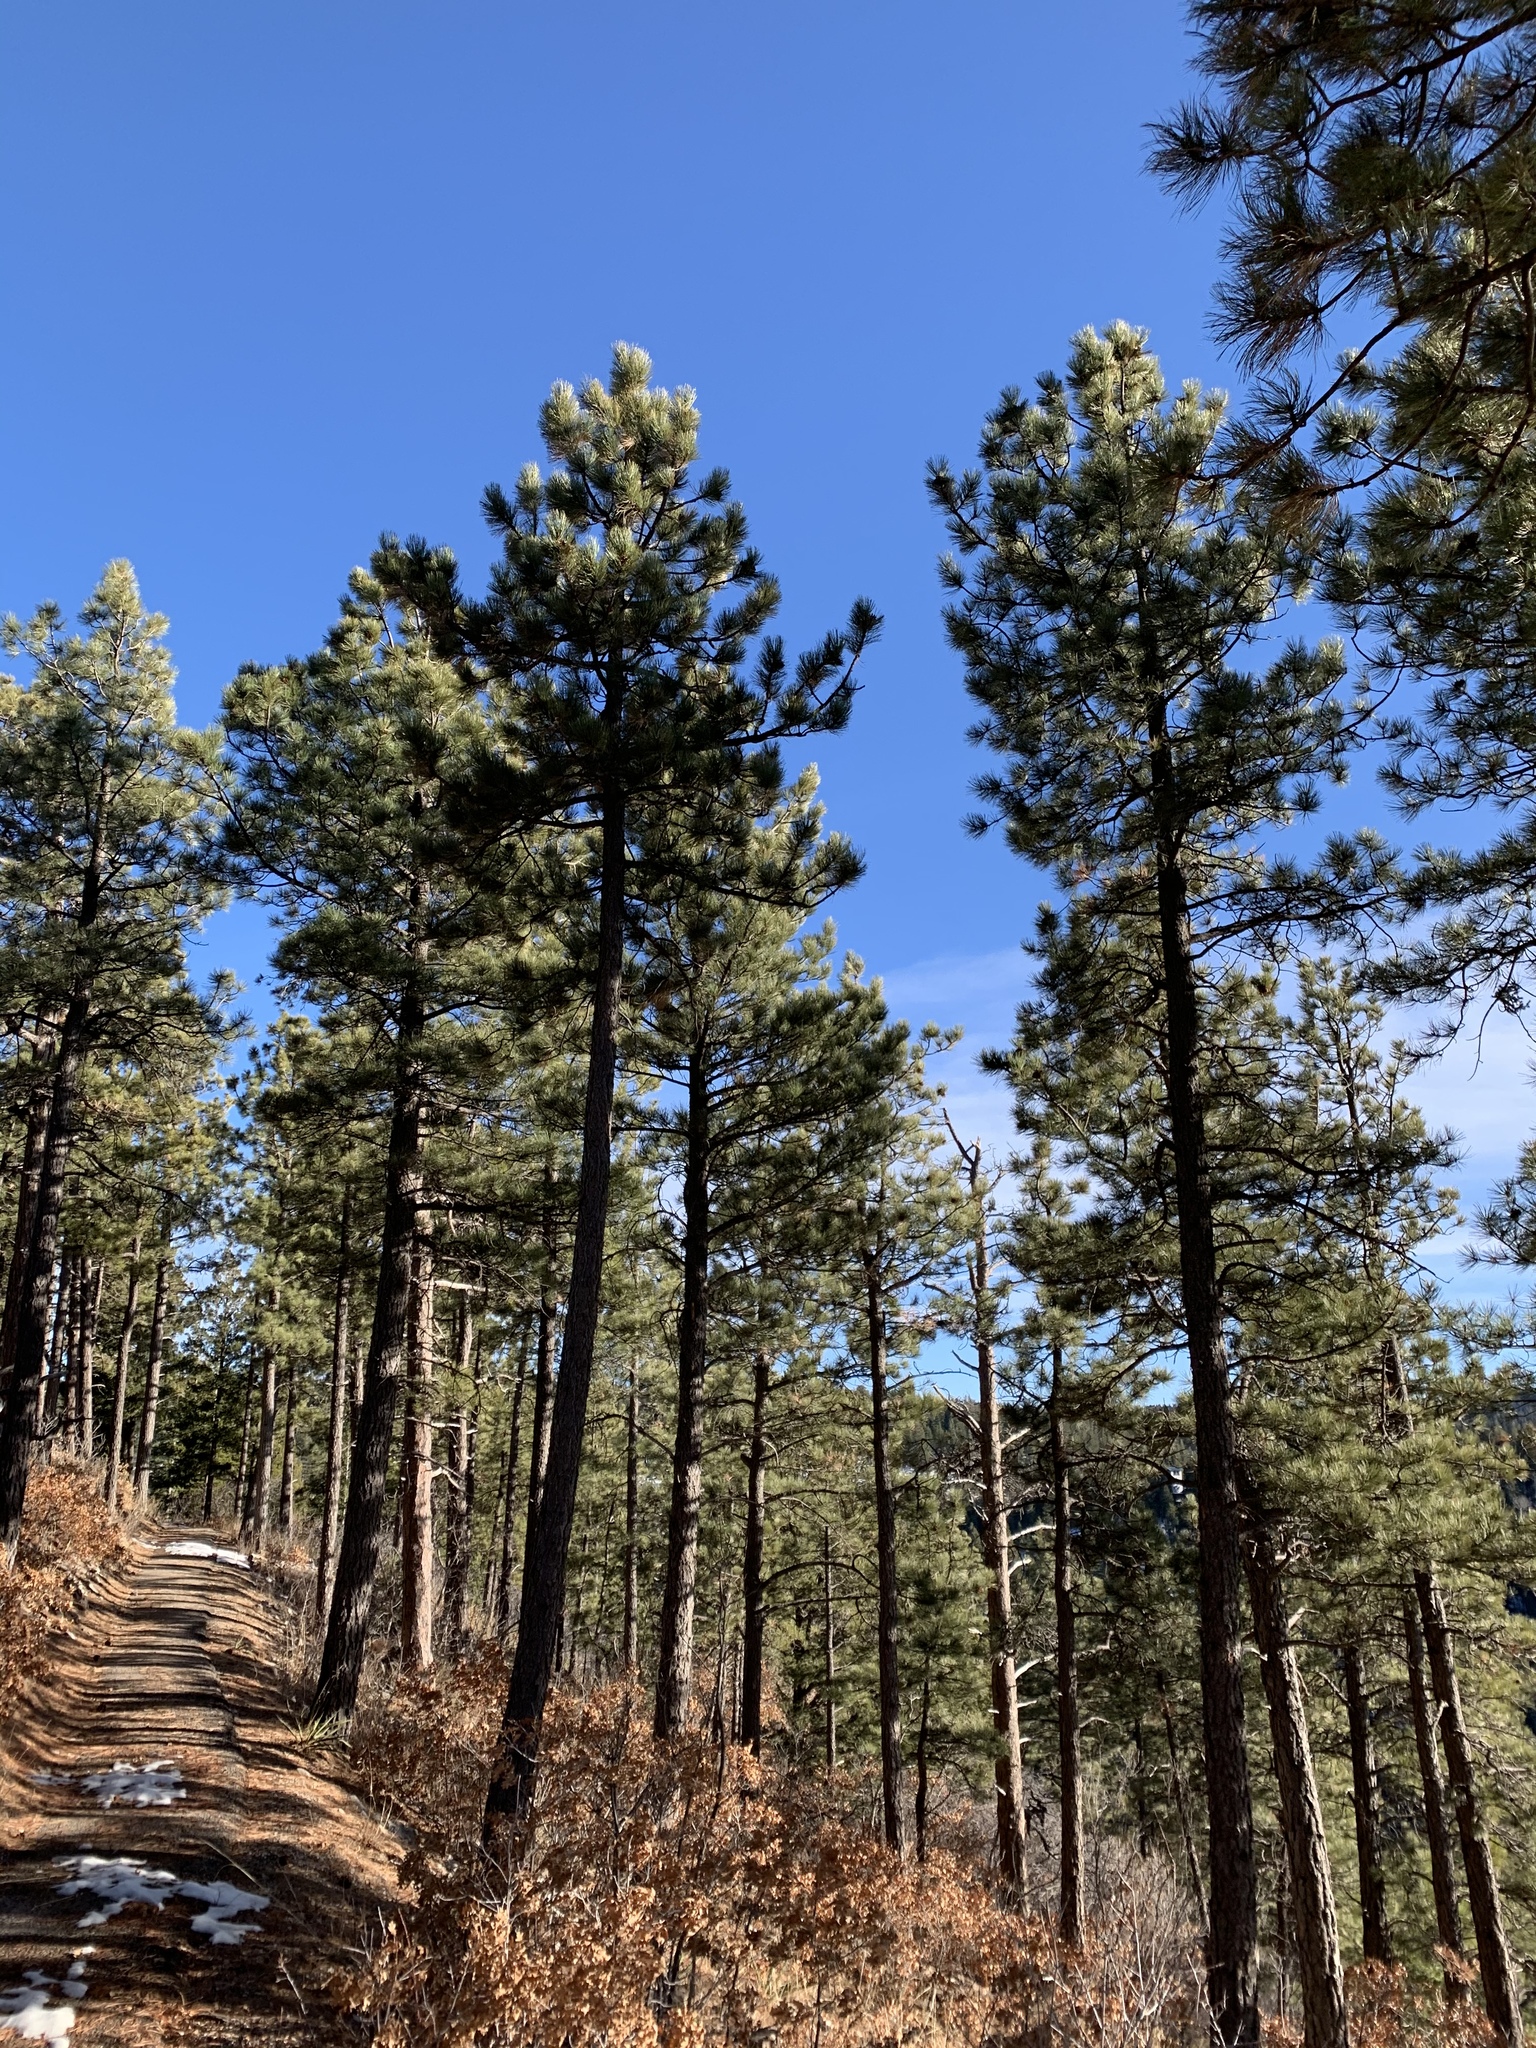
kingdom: Plantae
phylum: Tracheophyta
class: Pinopsida
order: Pinales
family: Pinaceae
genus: Pinus
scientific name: Pinus ponderosa
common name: Western yellow-pine
